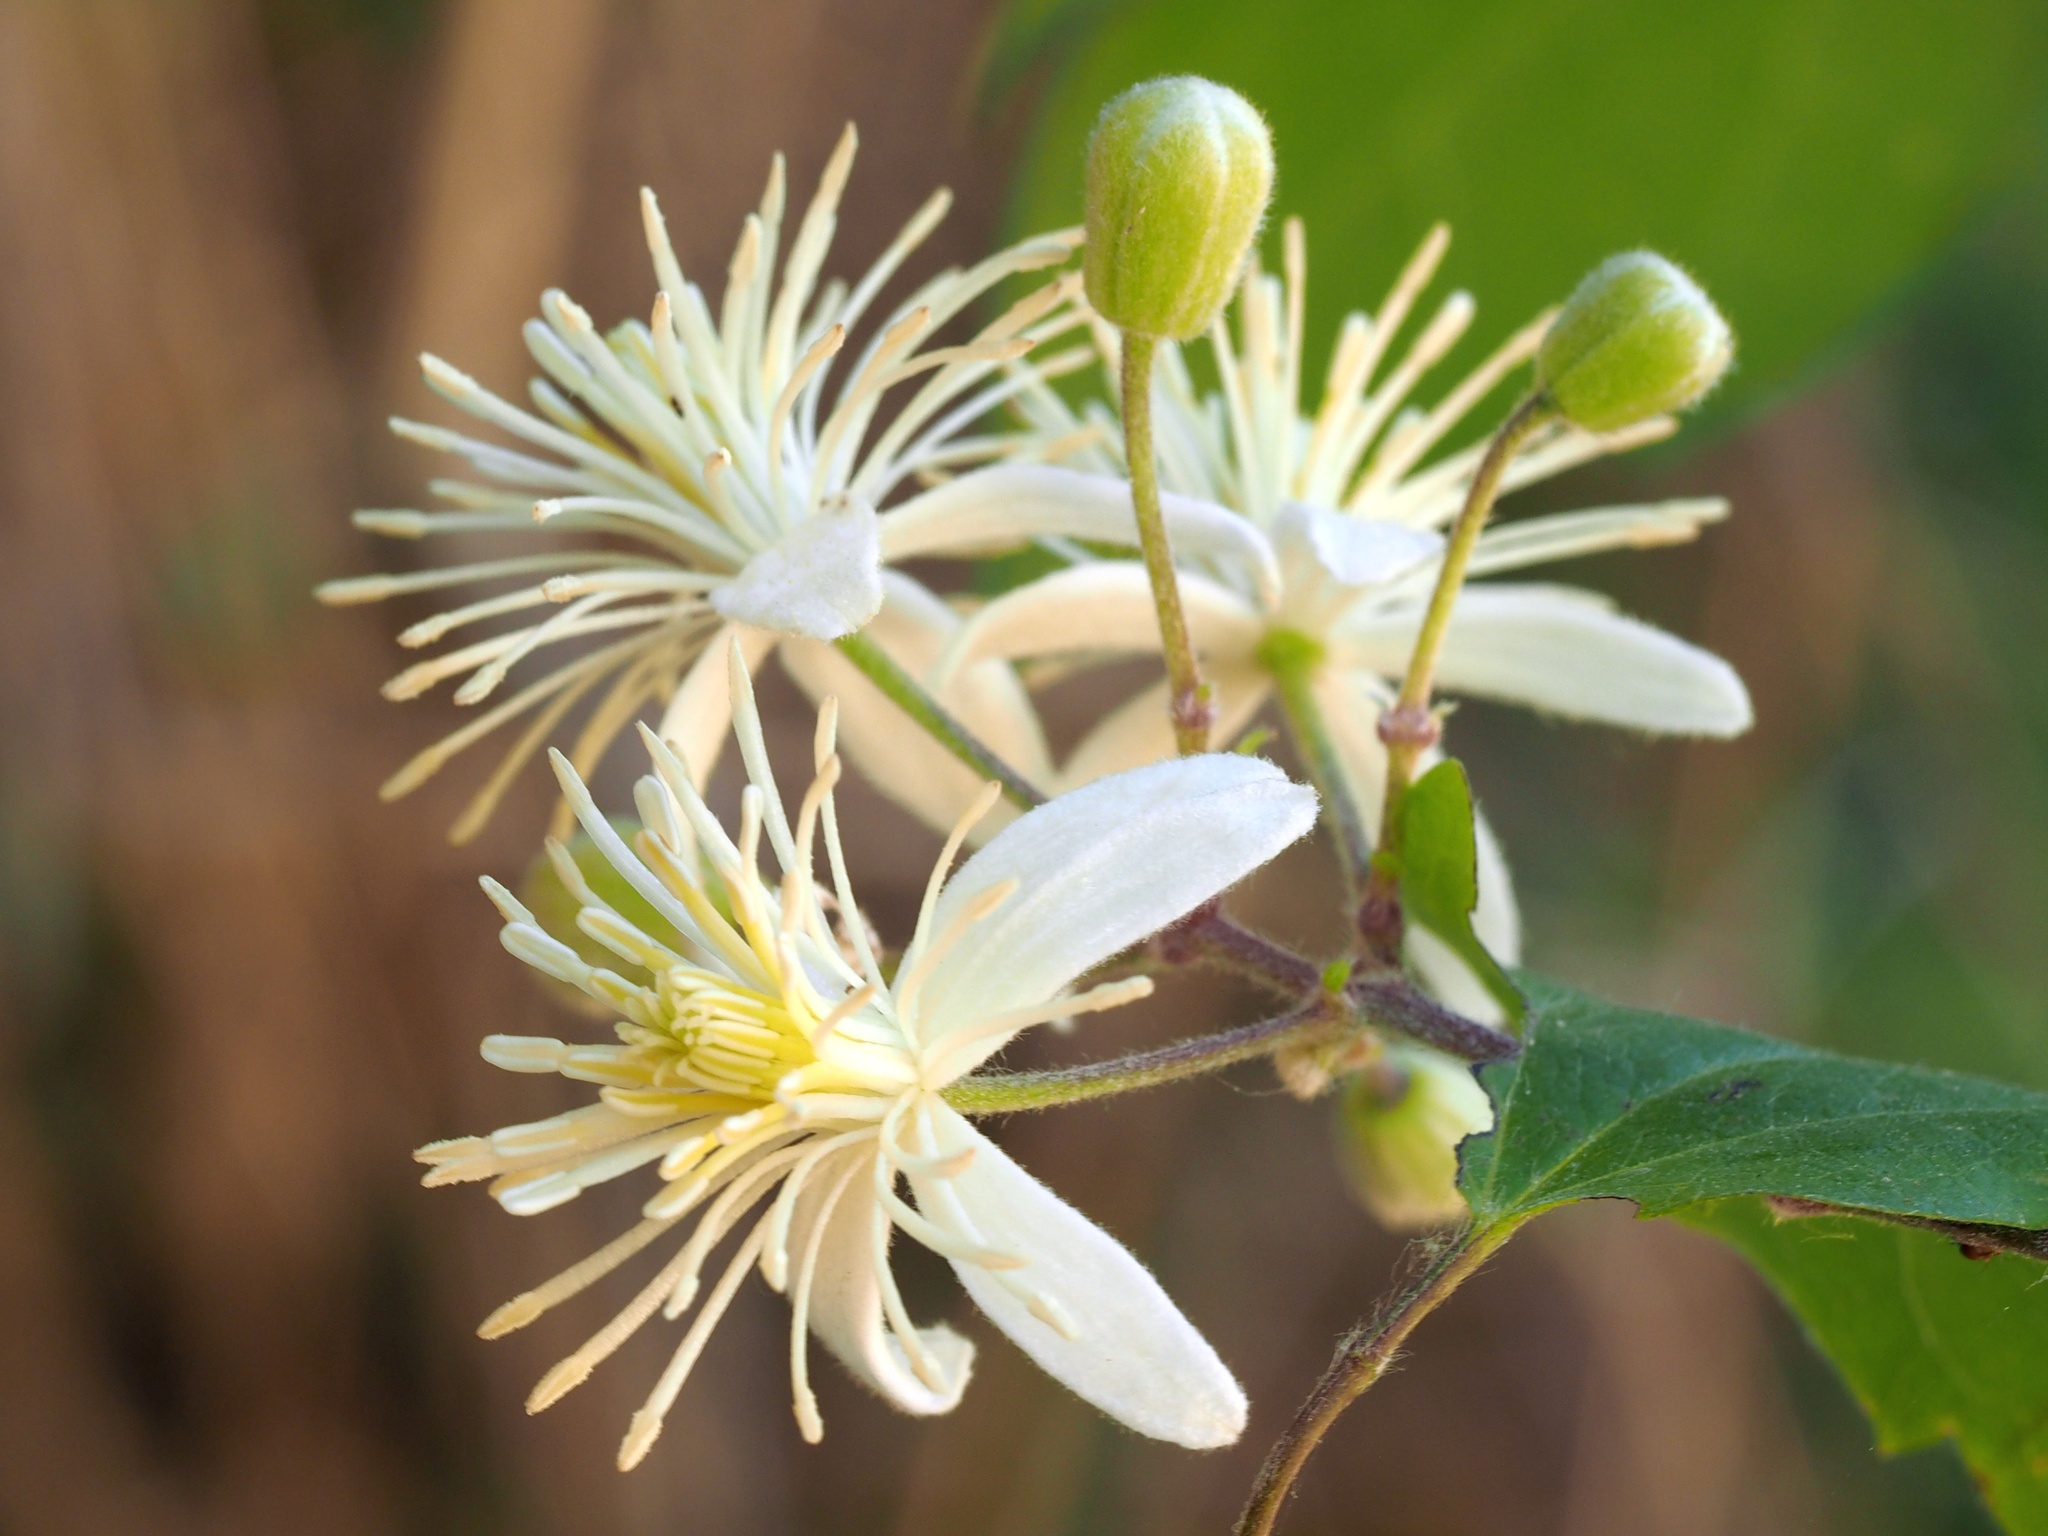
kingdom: Plantae
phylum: Tracheophyta
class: Magnoliopsida
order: Ranunculales
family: Ranunculaceae
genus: Clematis
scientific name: Clematis vitalba
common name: Evergreen clematis
